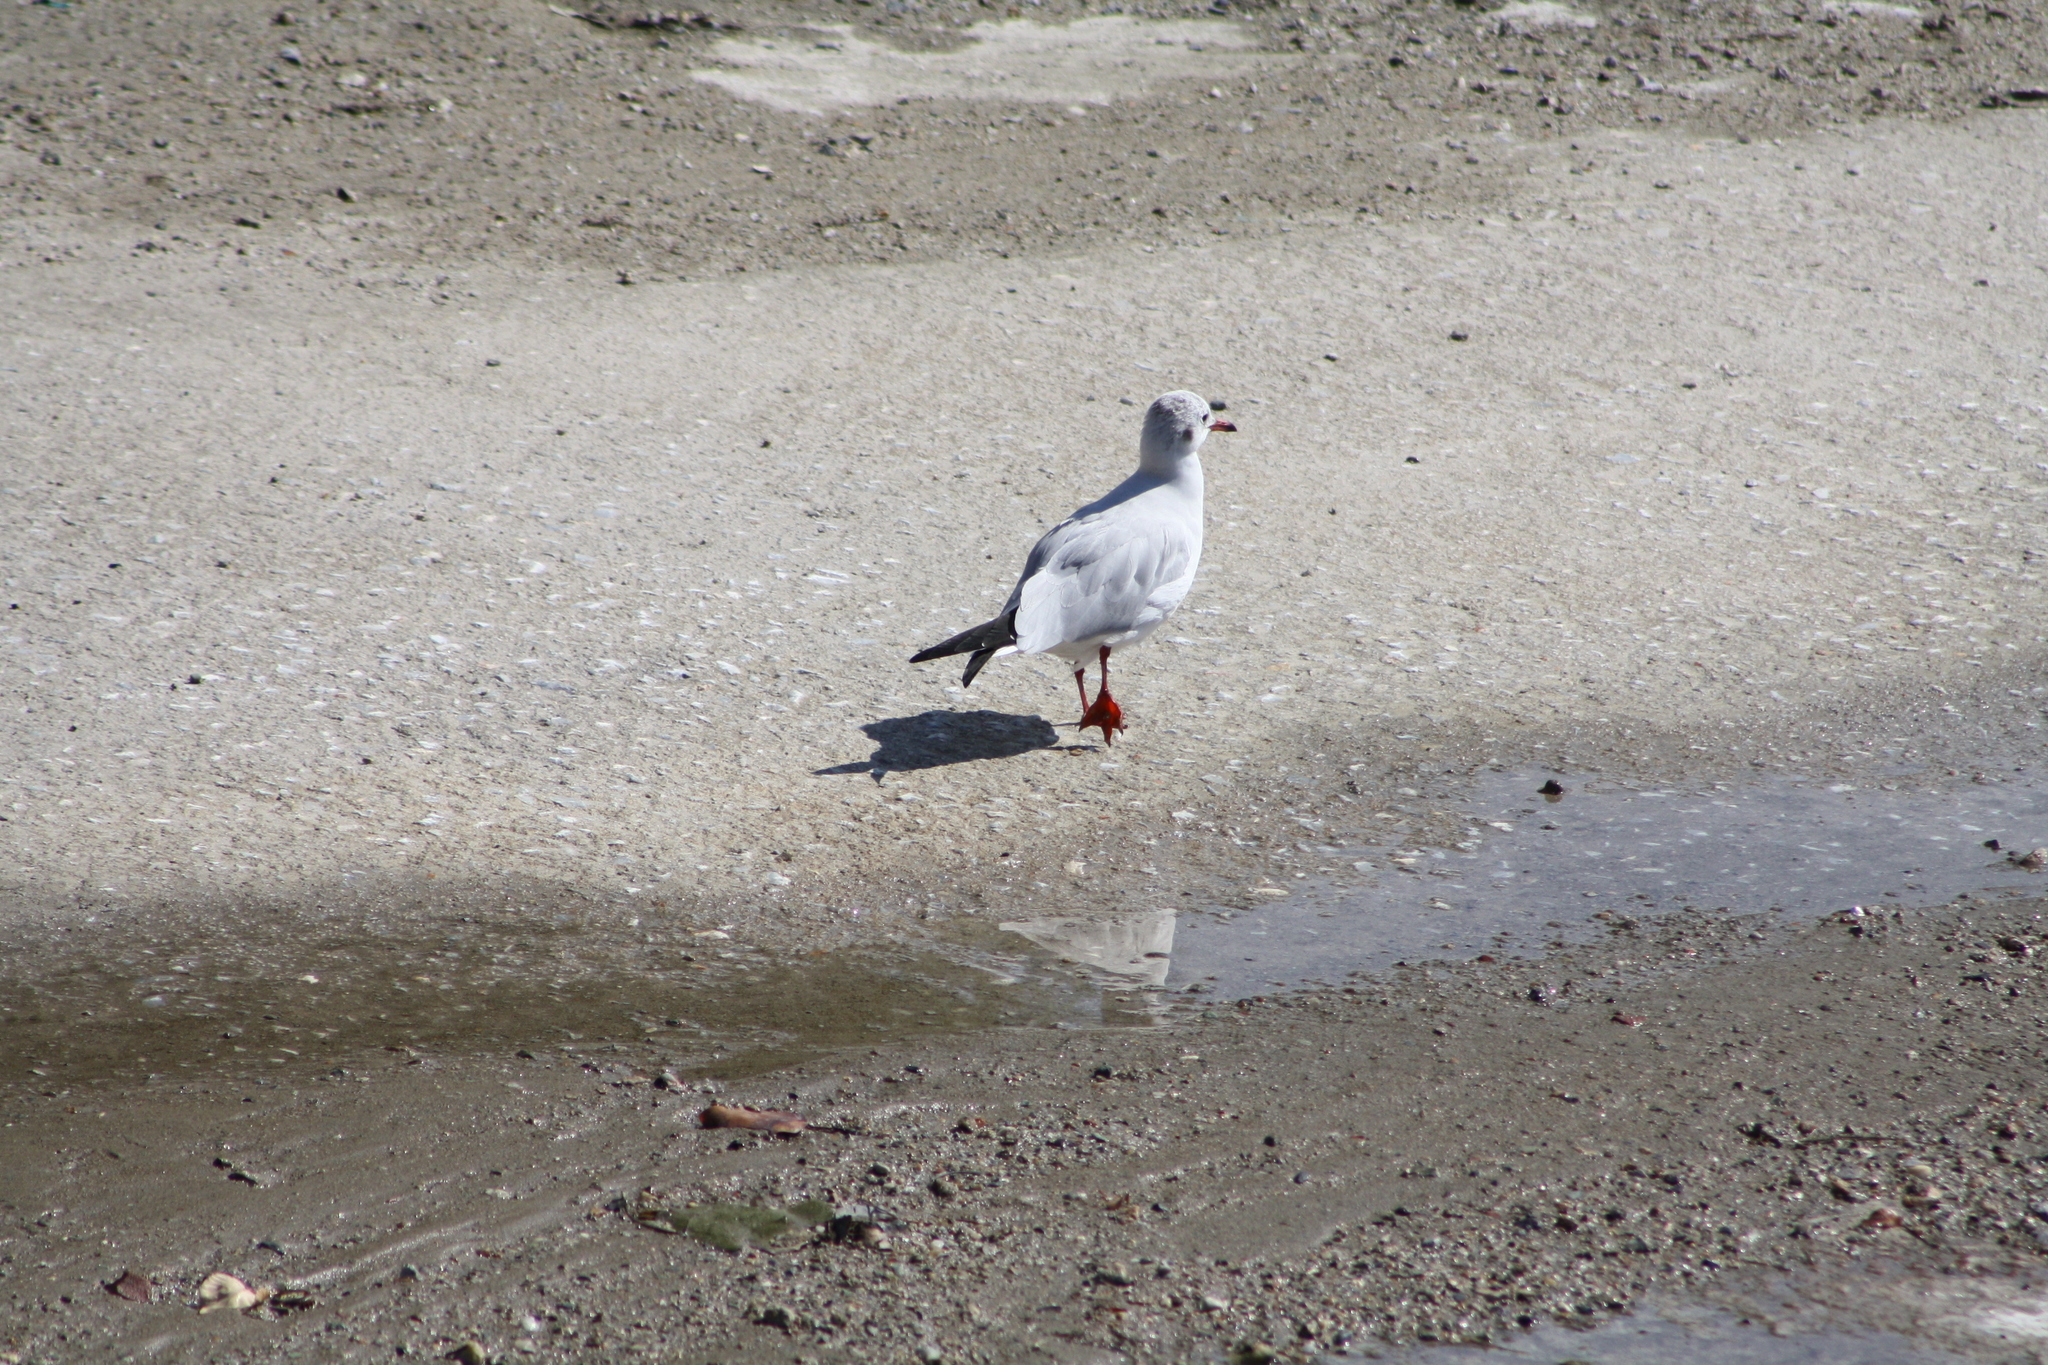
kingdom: Animalia
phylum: Chordata
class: Aves
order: Charadriiformes
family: Laridae
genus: Chroicocephalus
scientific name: Chroicocephalus ridibundus
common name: Black-headed gull
